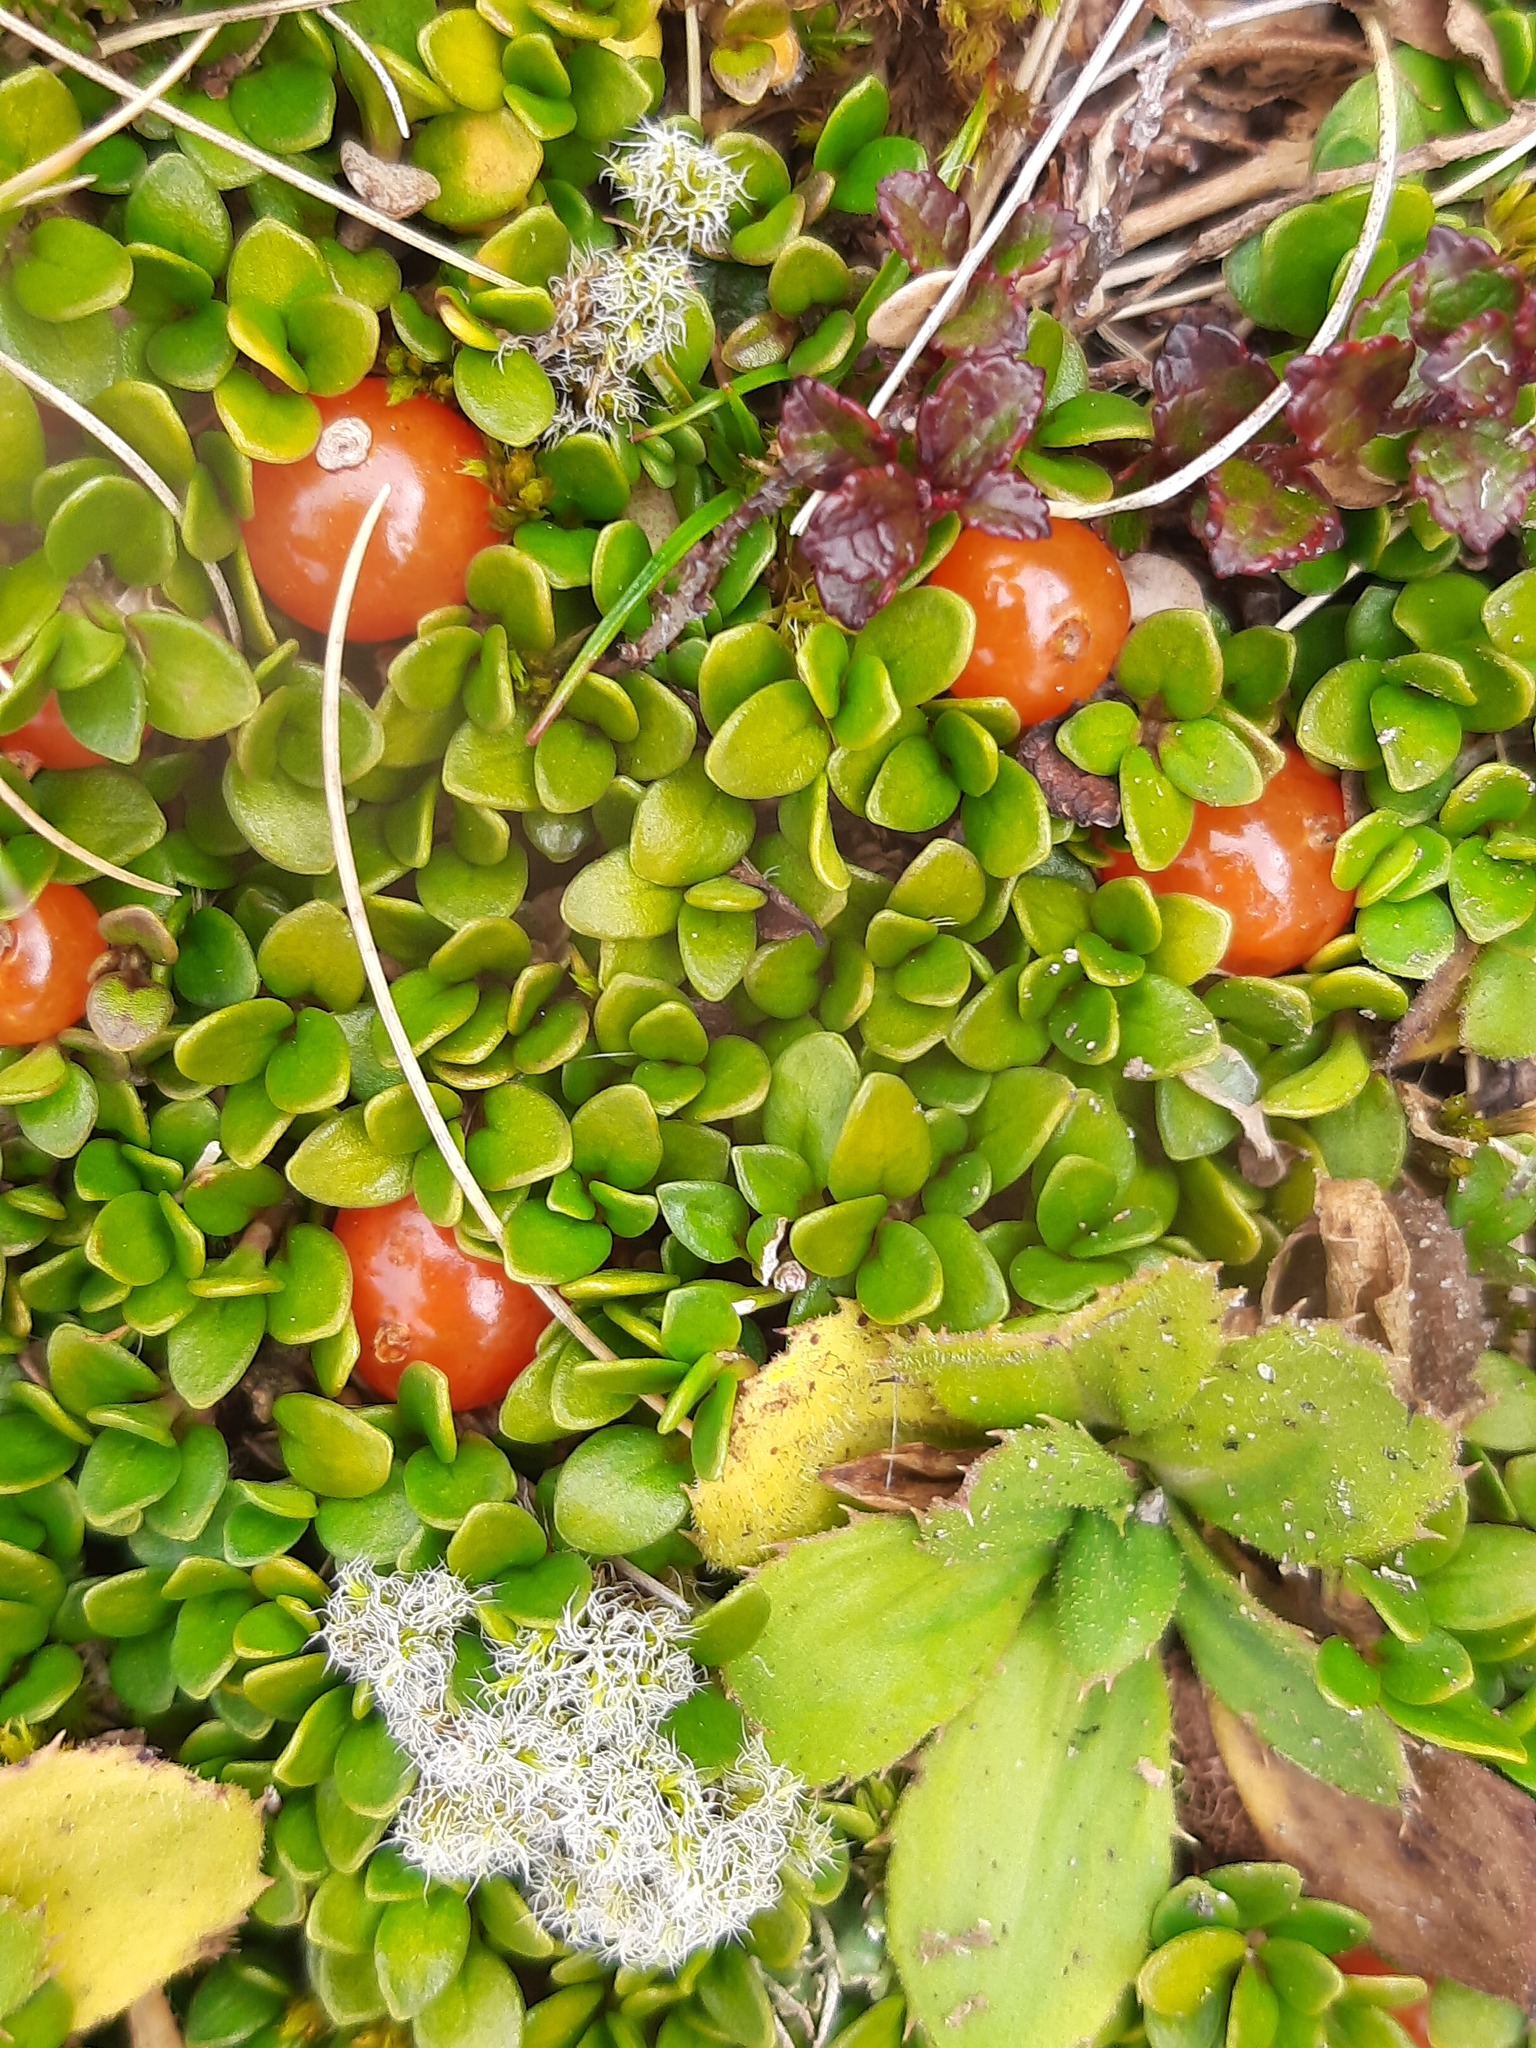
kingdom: Plantae
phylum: Tracheophyta
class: Magnoliopsida
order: Gentianales
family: Rubiaceae
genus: Coprosma
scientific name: Coprosma perpusilla
